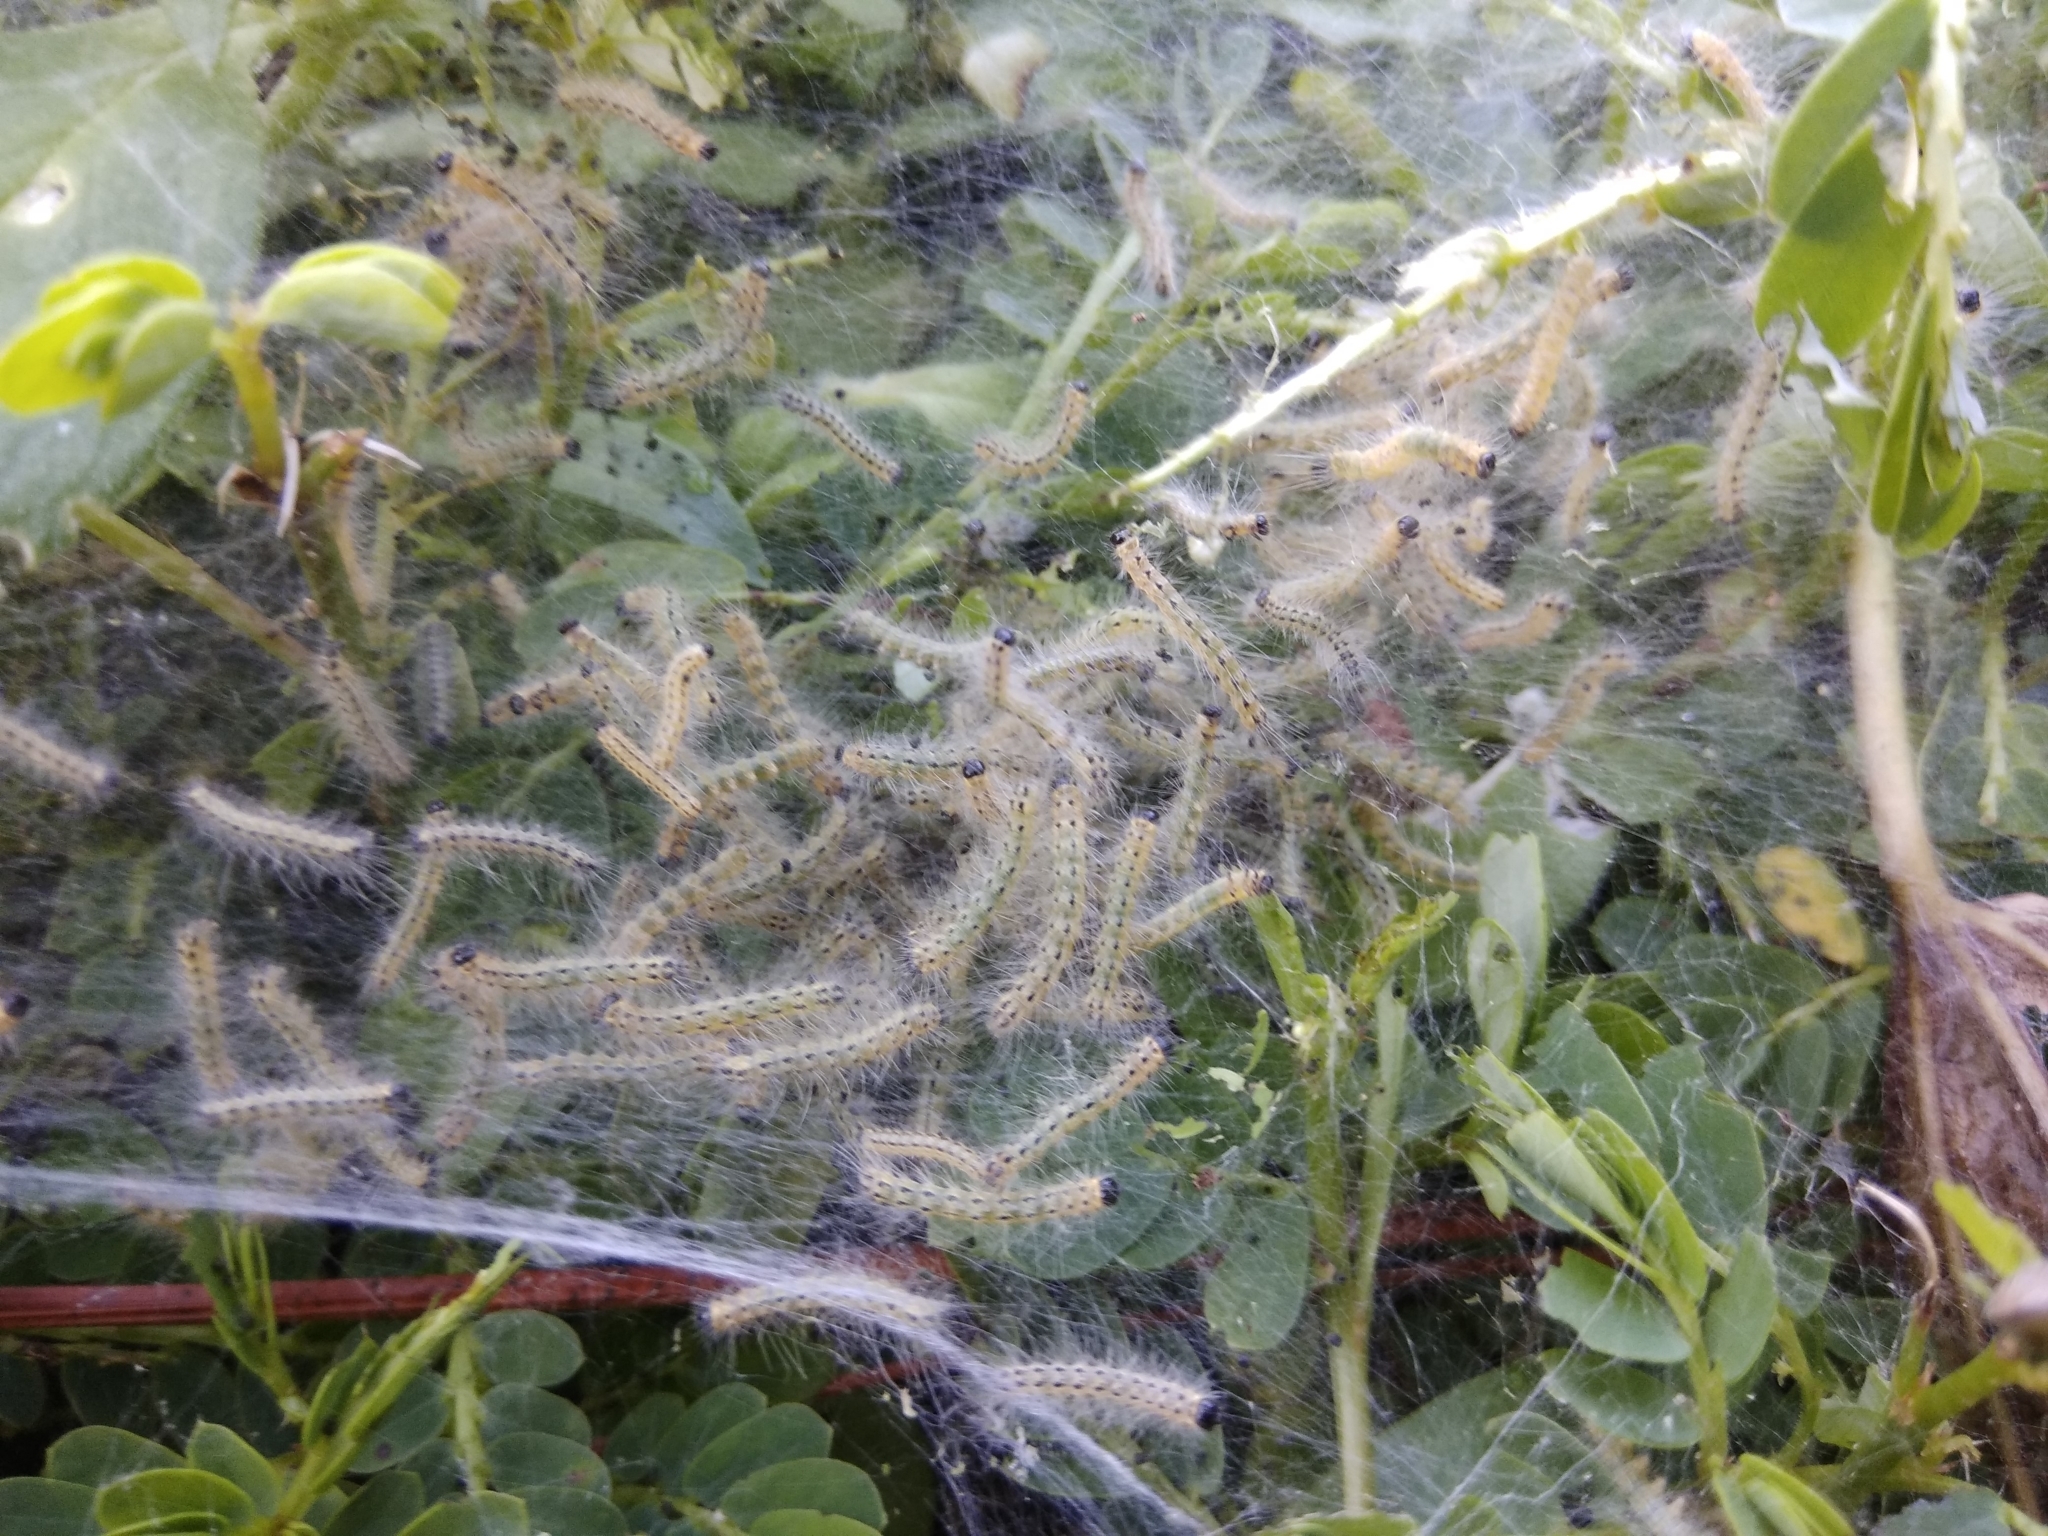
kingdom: Animalia
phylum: Arthropoda
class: Insecta
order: Lepidoptera
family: Erebidae
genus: Hyphantria
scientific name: Hyphantria cunea
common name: American white moth
